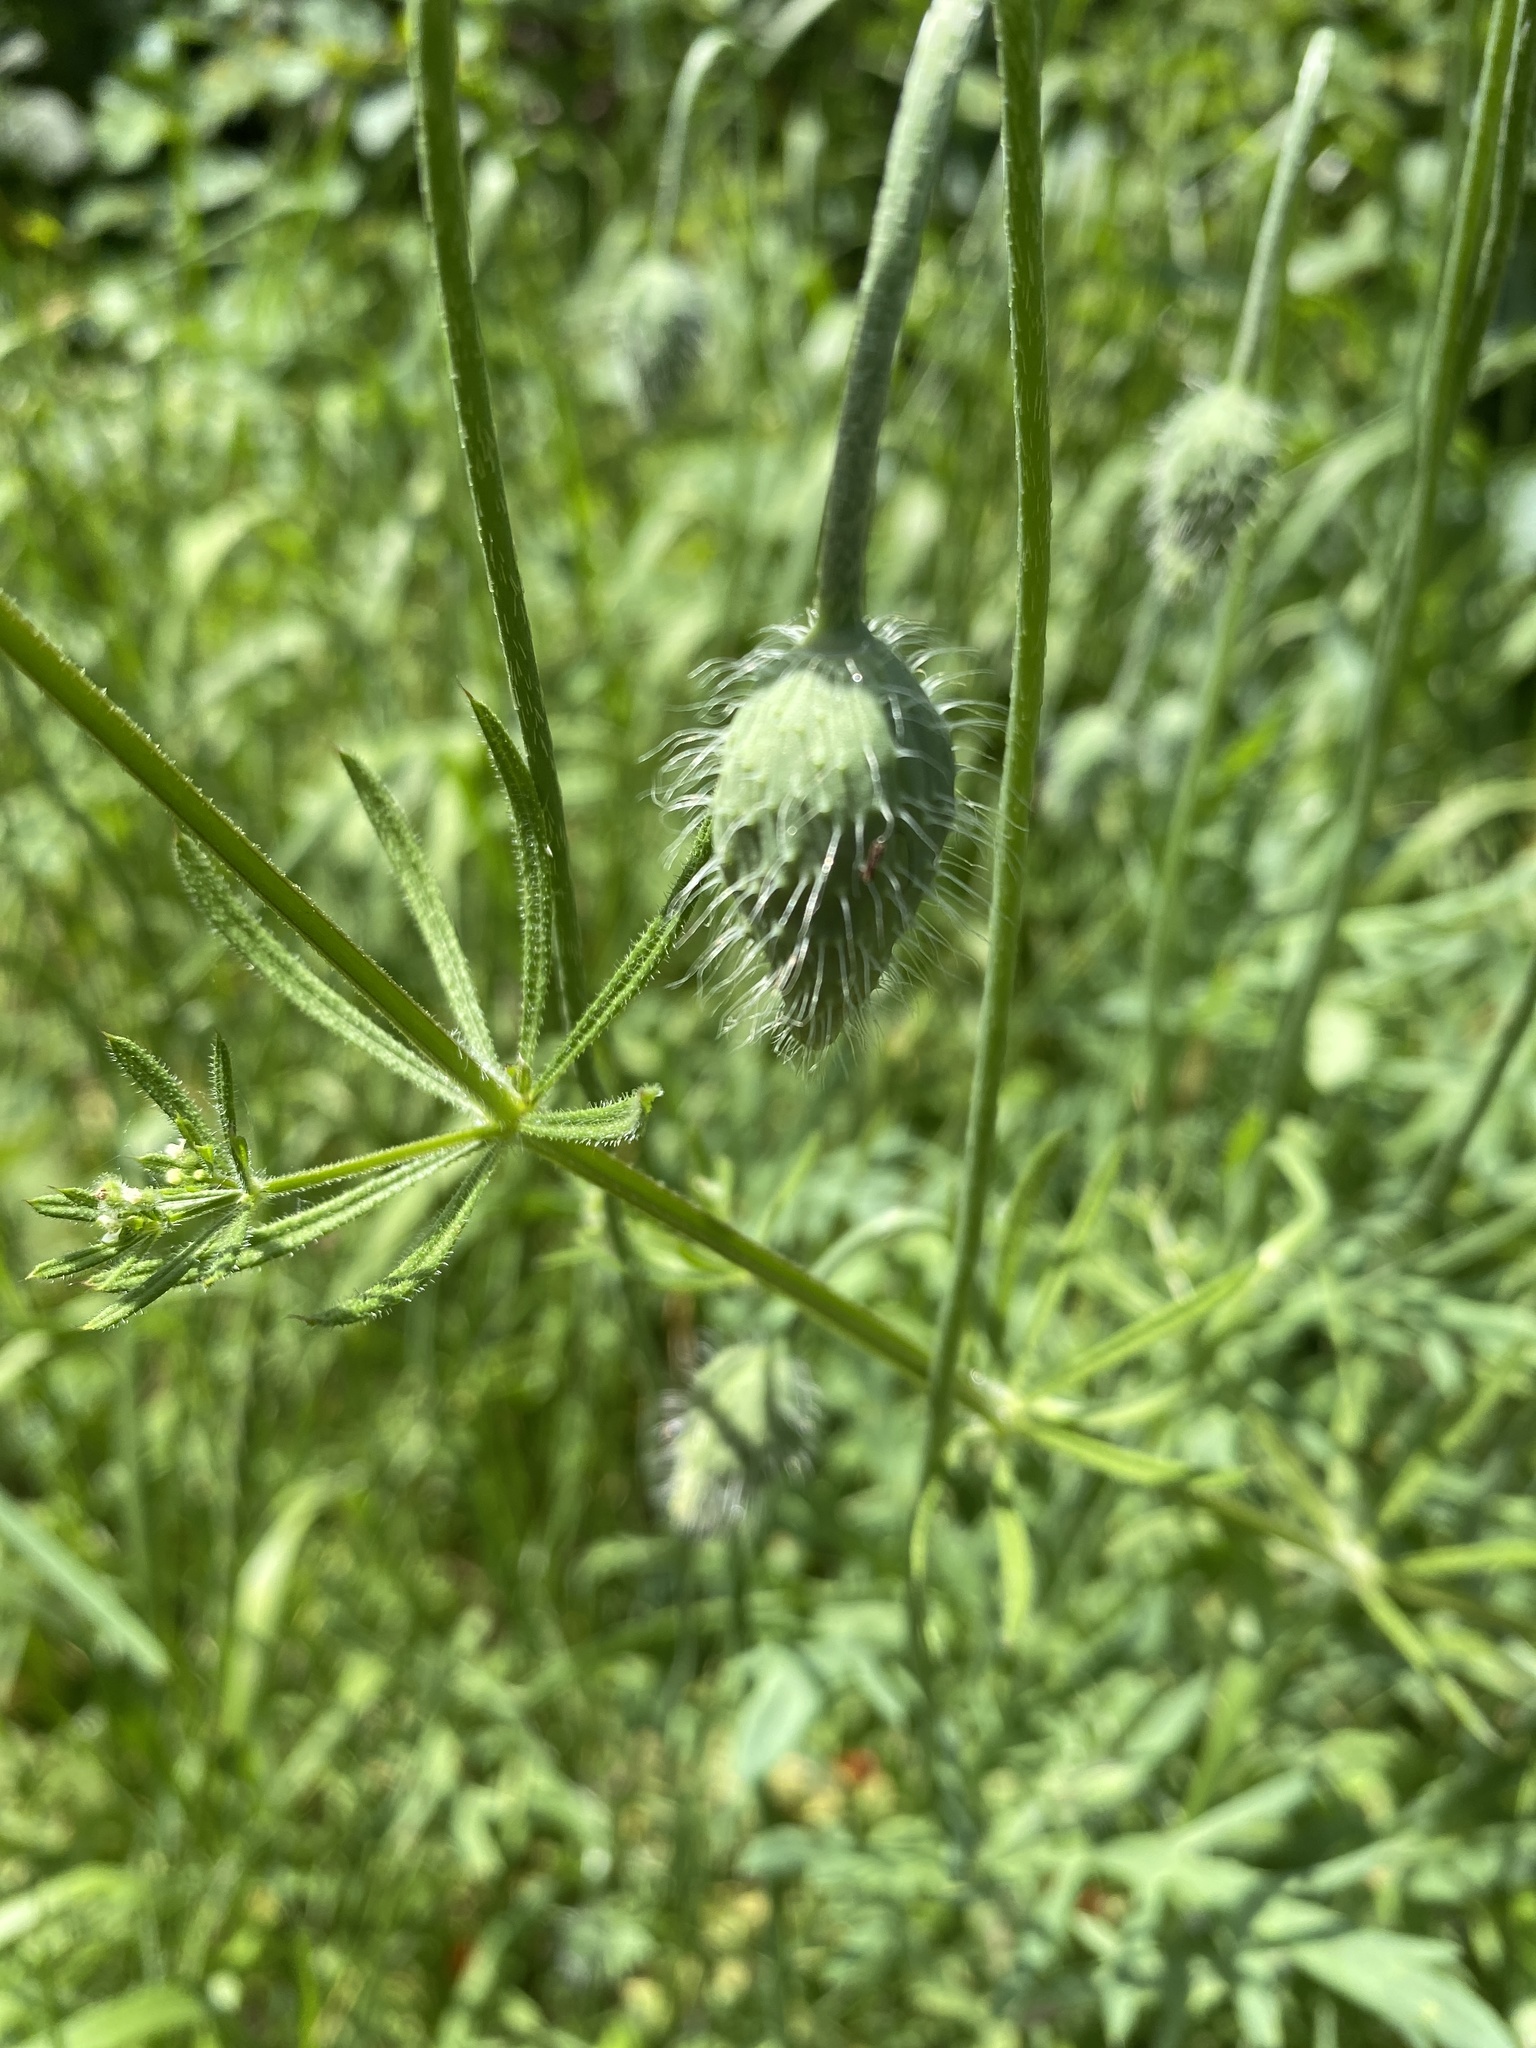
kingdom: Plantae
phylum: Tracheophyta
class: Magnoliopsida
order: Ranunculales
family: Papaveraceae
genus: Papaver
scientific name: Papaver dubium
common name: Long-headed poppy
